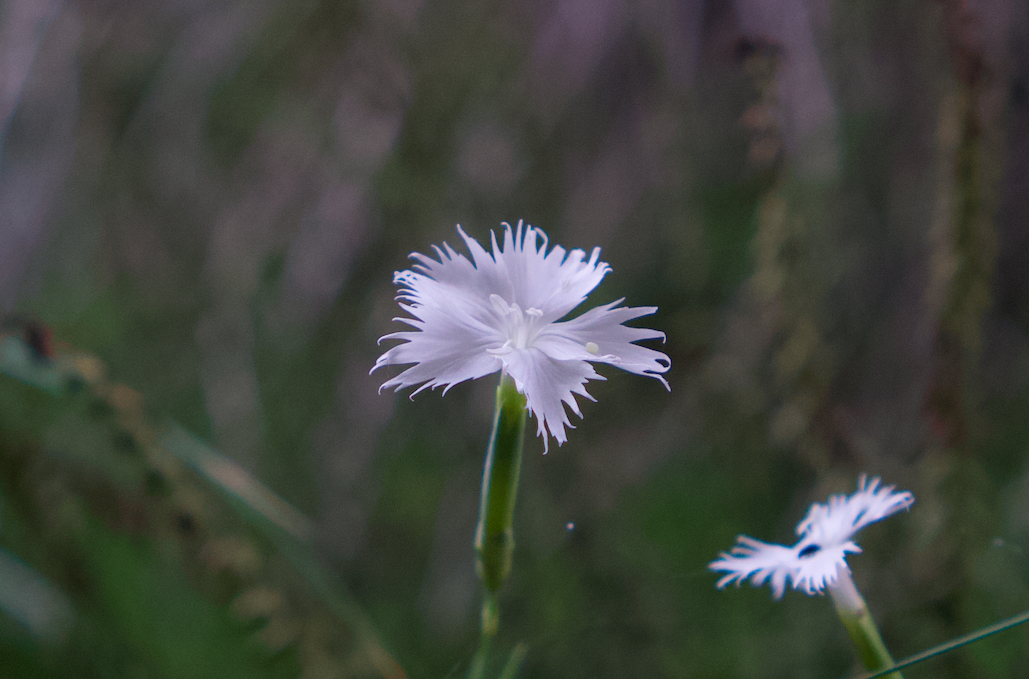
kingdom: Plantae
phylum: Tracheophyta
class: Magnoliopsida
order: Caryophyllales
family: Caryophyllaceae
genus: Dianthus
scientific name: Dianthus arenarius
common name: Stone pink
